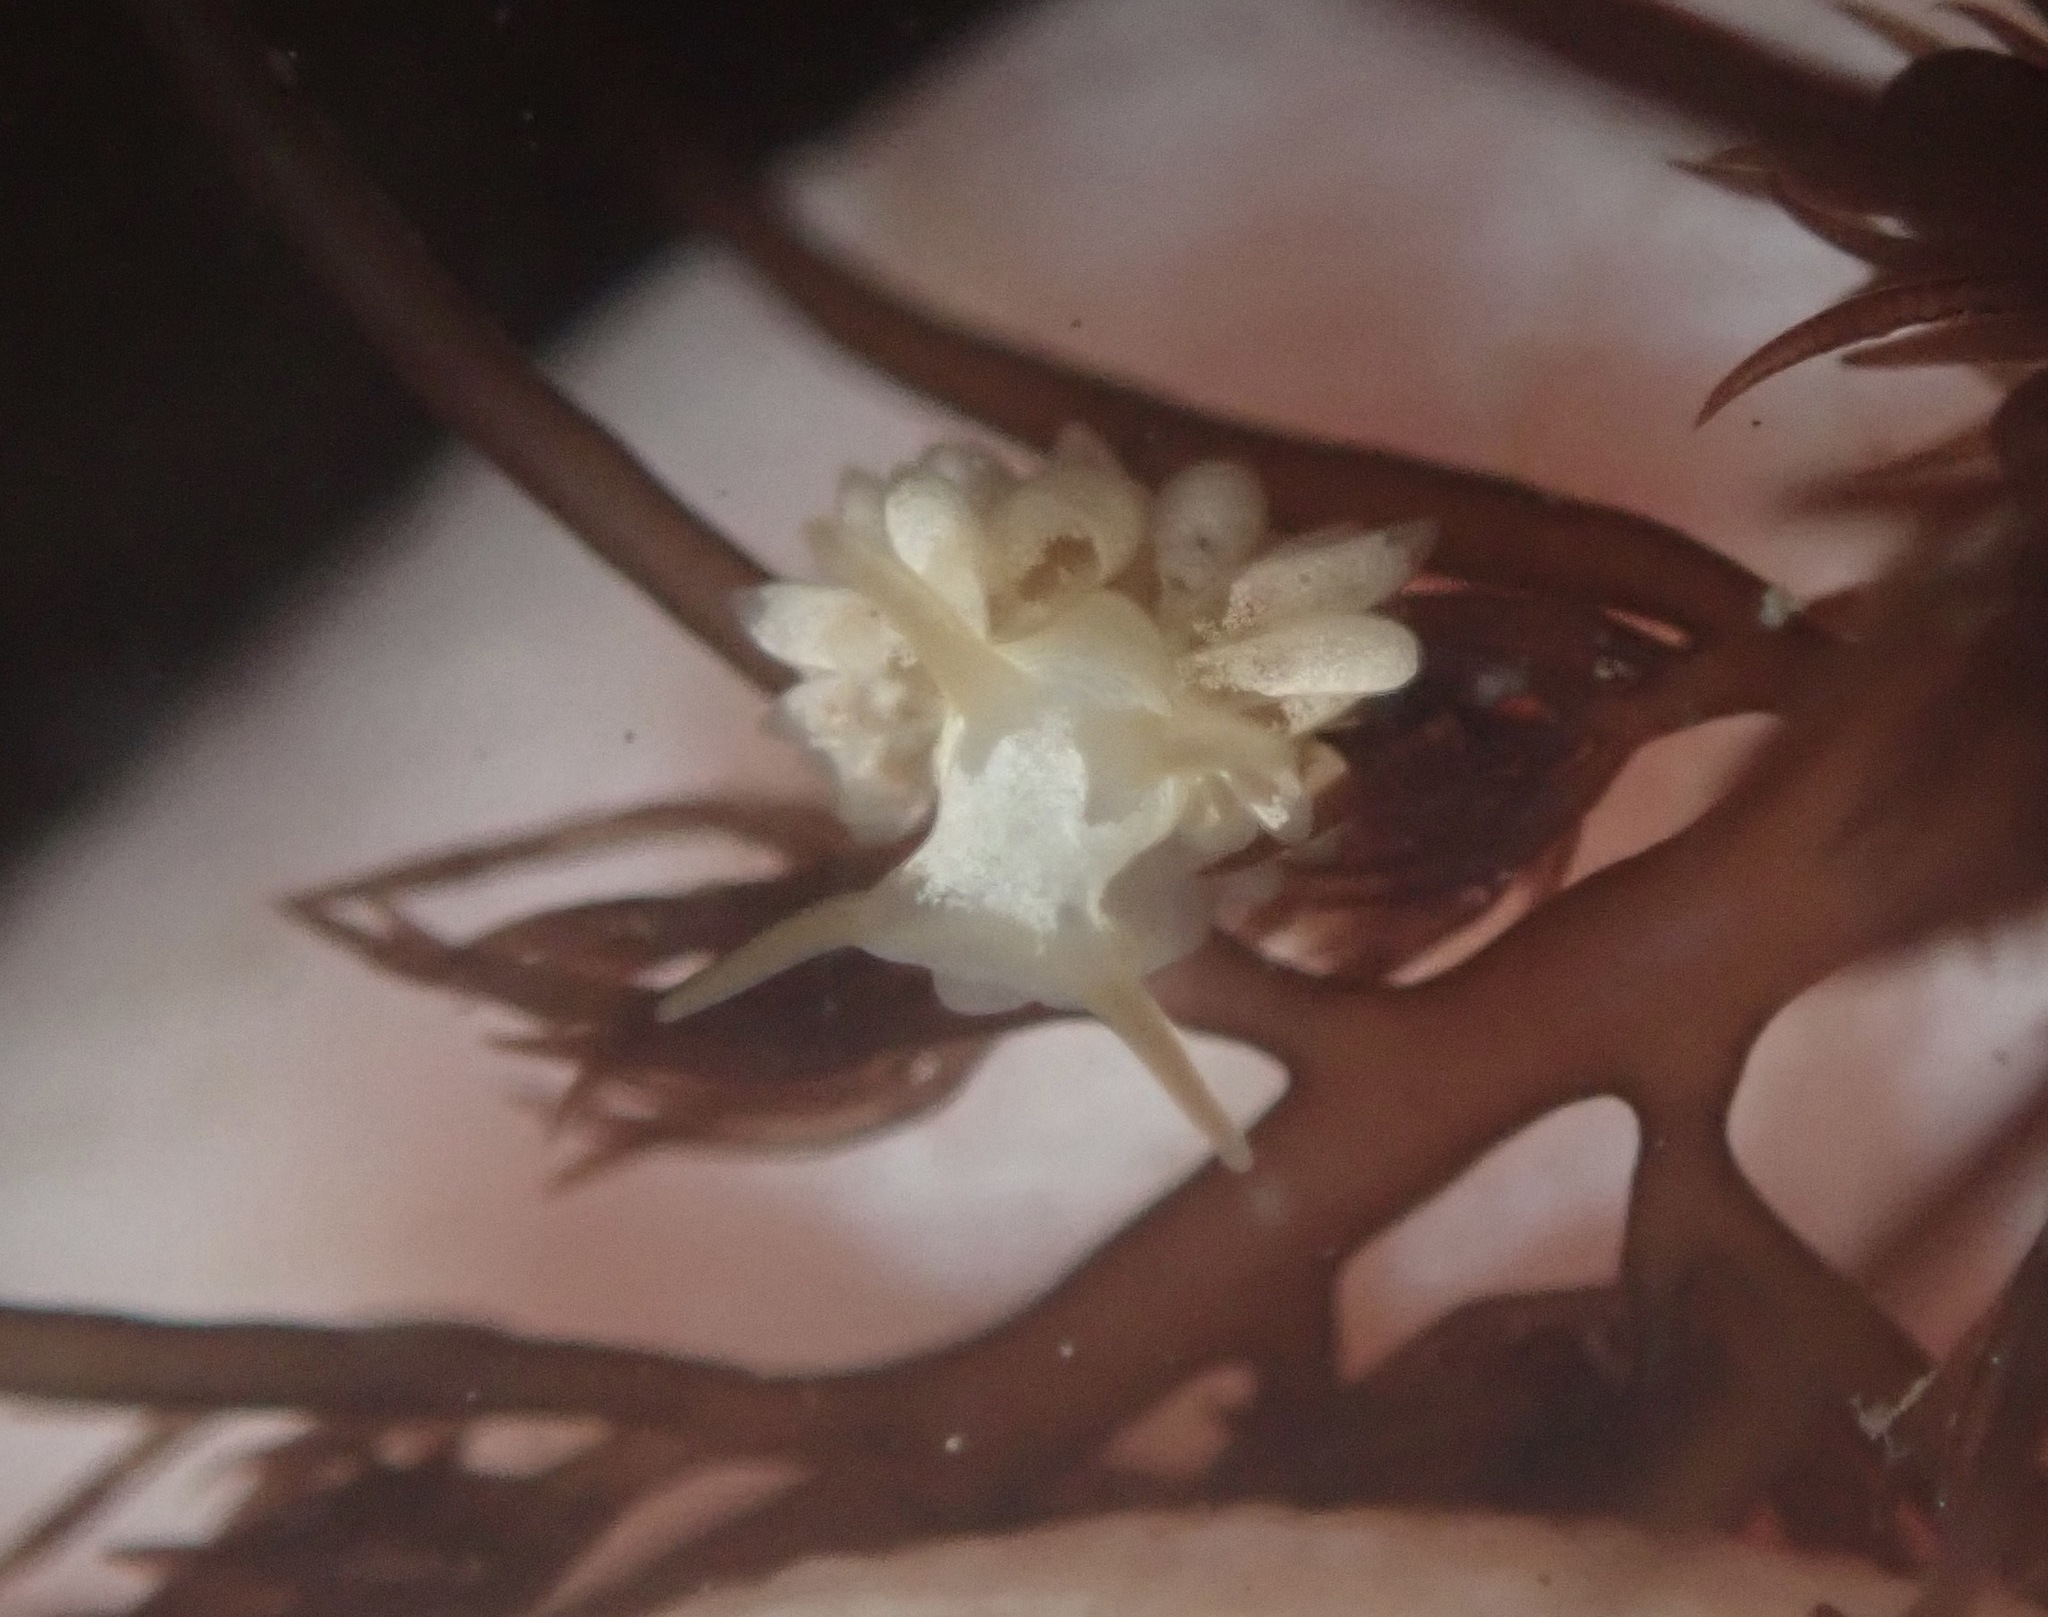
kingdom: Animalia
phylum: Mollusca
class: Gastropoda
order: Nudibranchia
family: Trinchesiidae
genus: Trinchesia
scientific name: Trinchesia albocrusta
